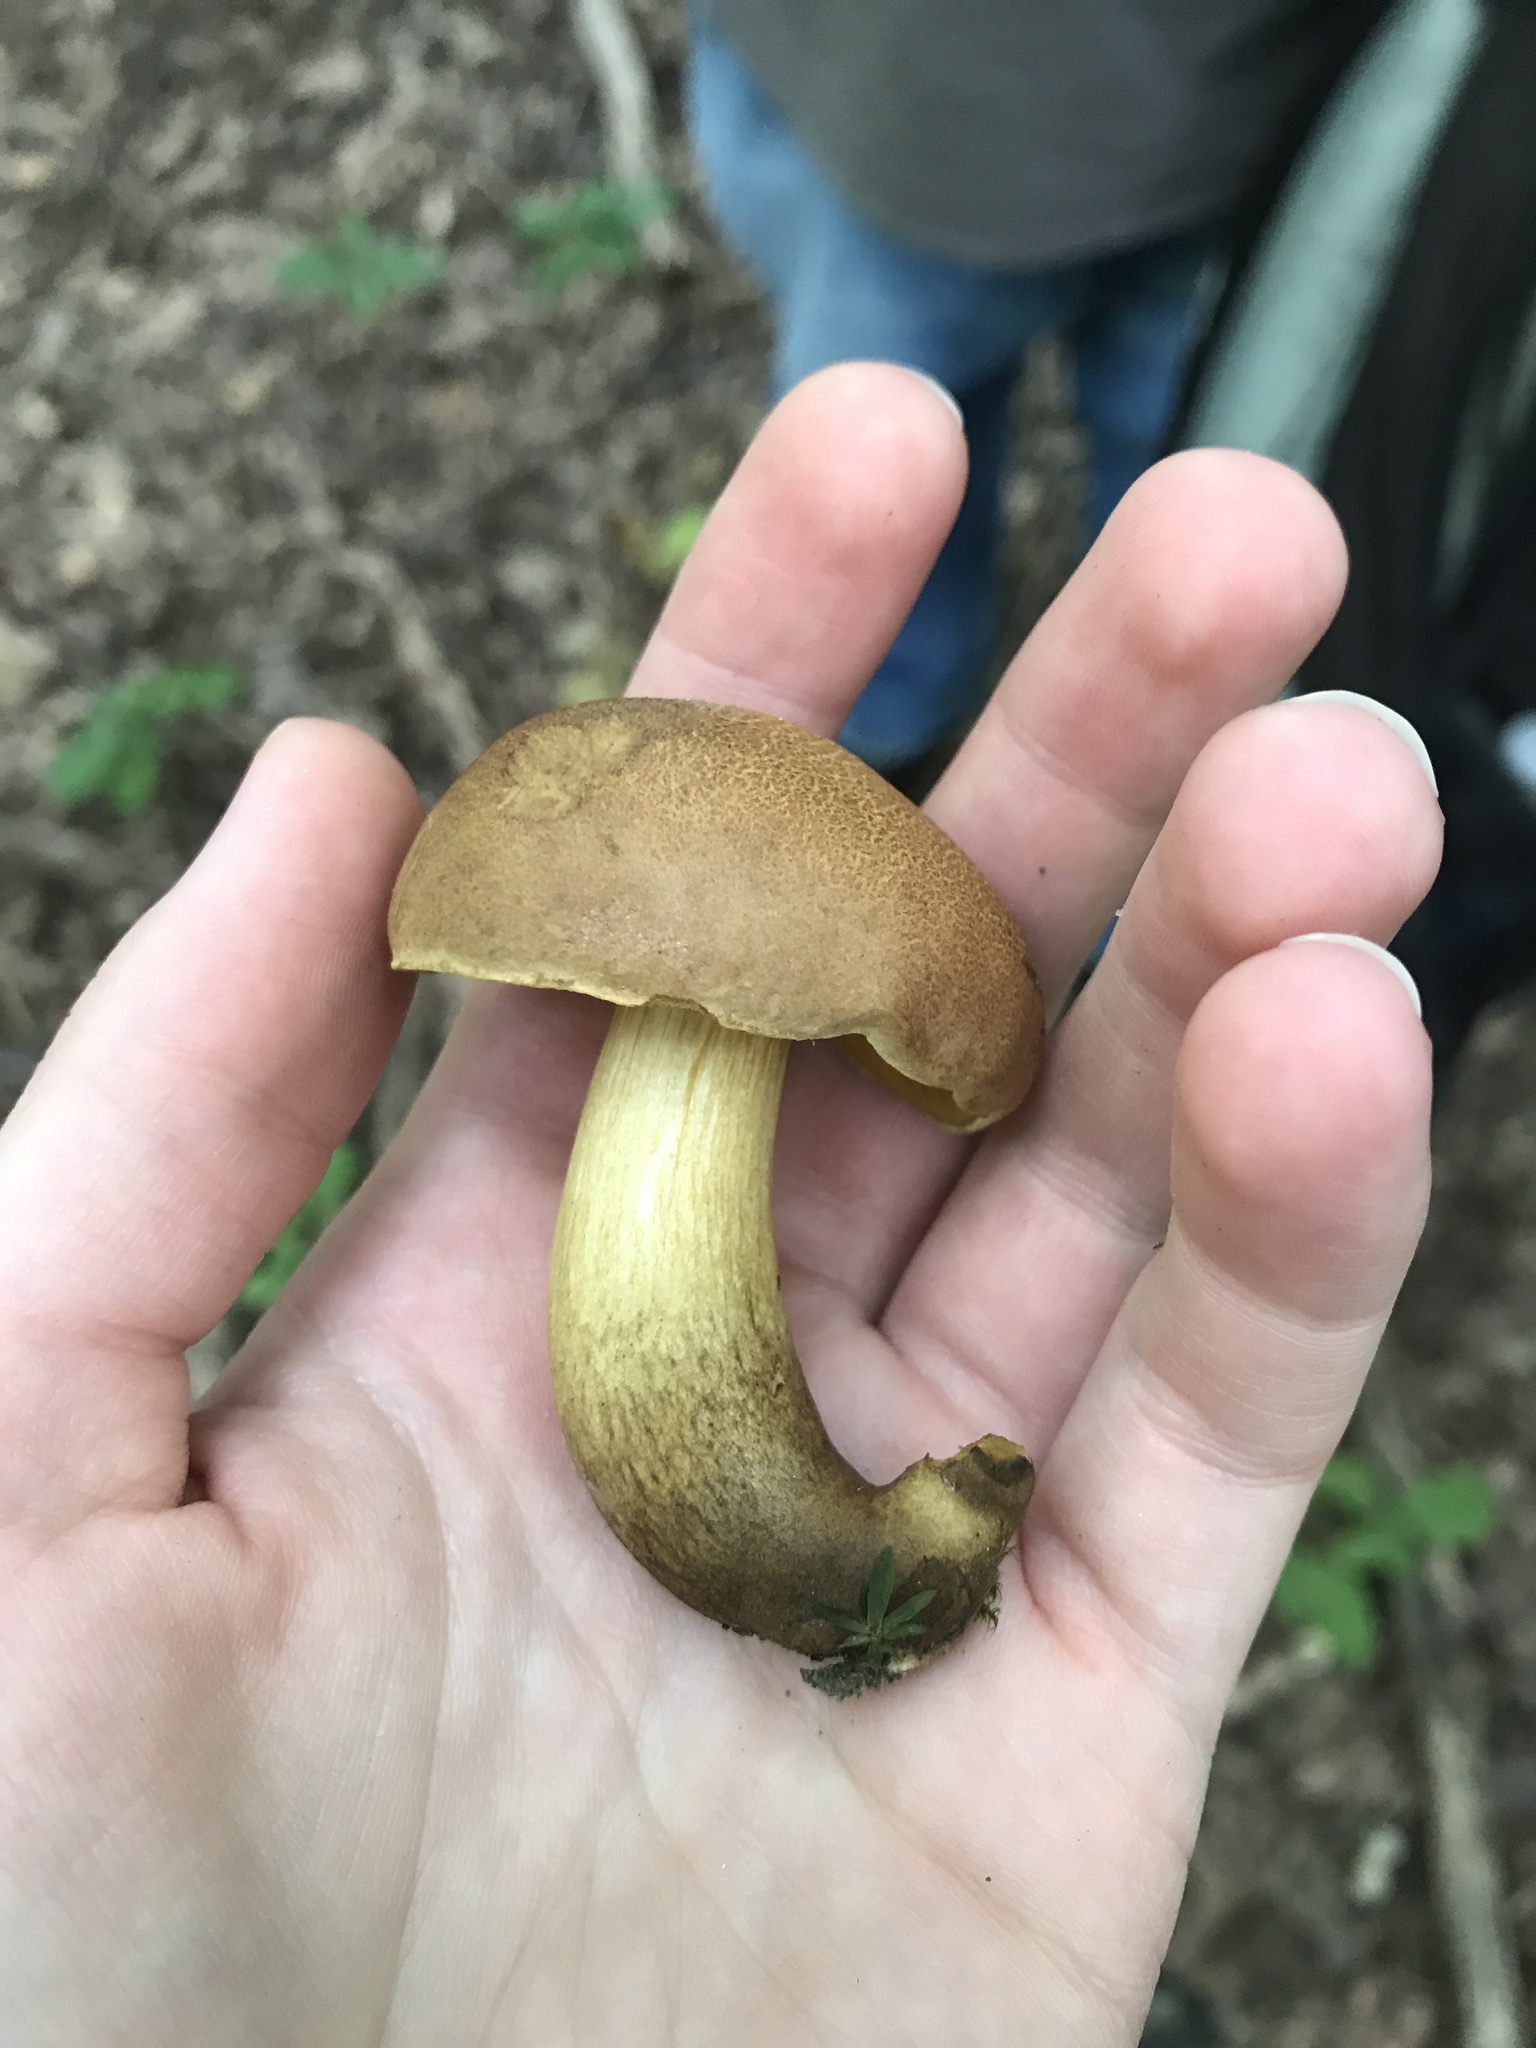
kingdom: Fungi
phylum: Basidiomycota
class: Agaricomycetes
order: Boletales
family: Boletaceae
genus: Aureoboletus
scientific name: Aureoboletus innixus
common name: Clustered brown bolete
